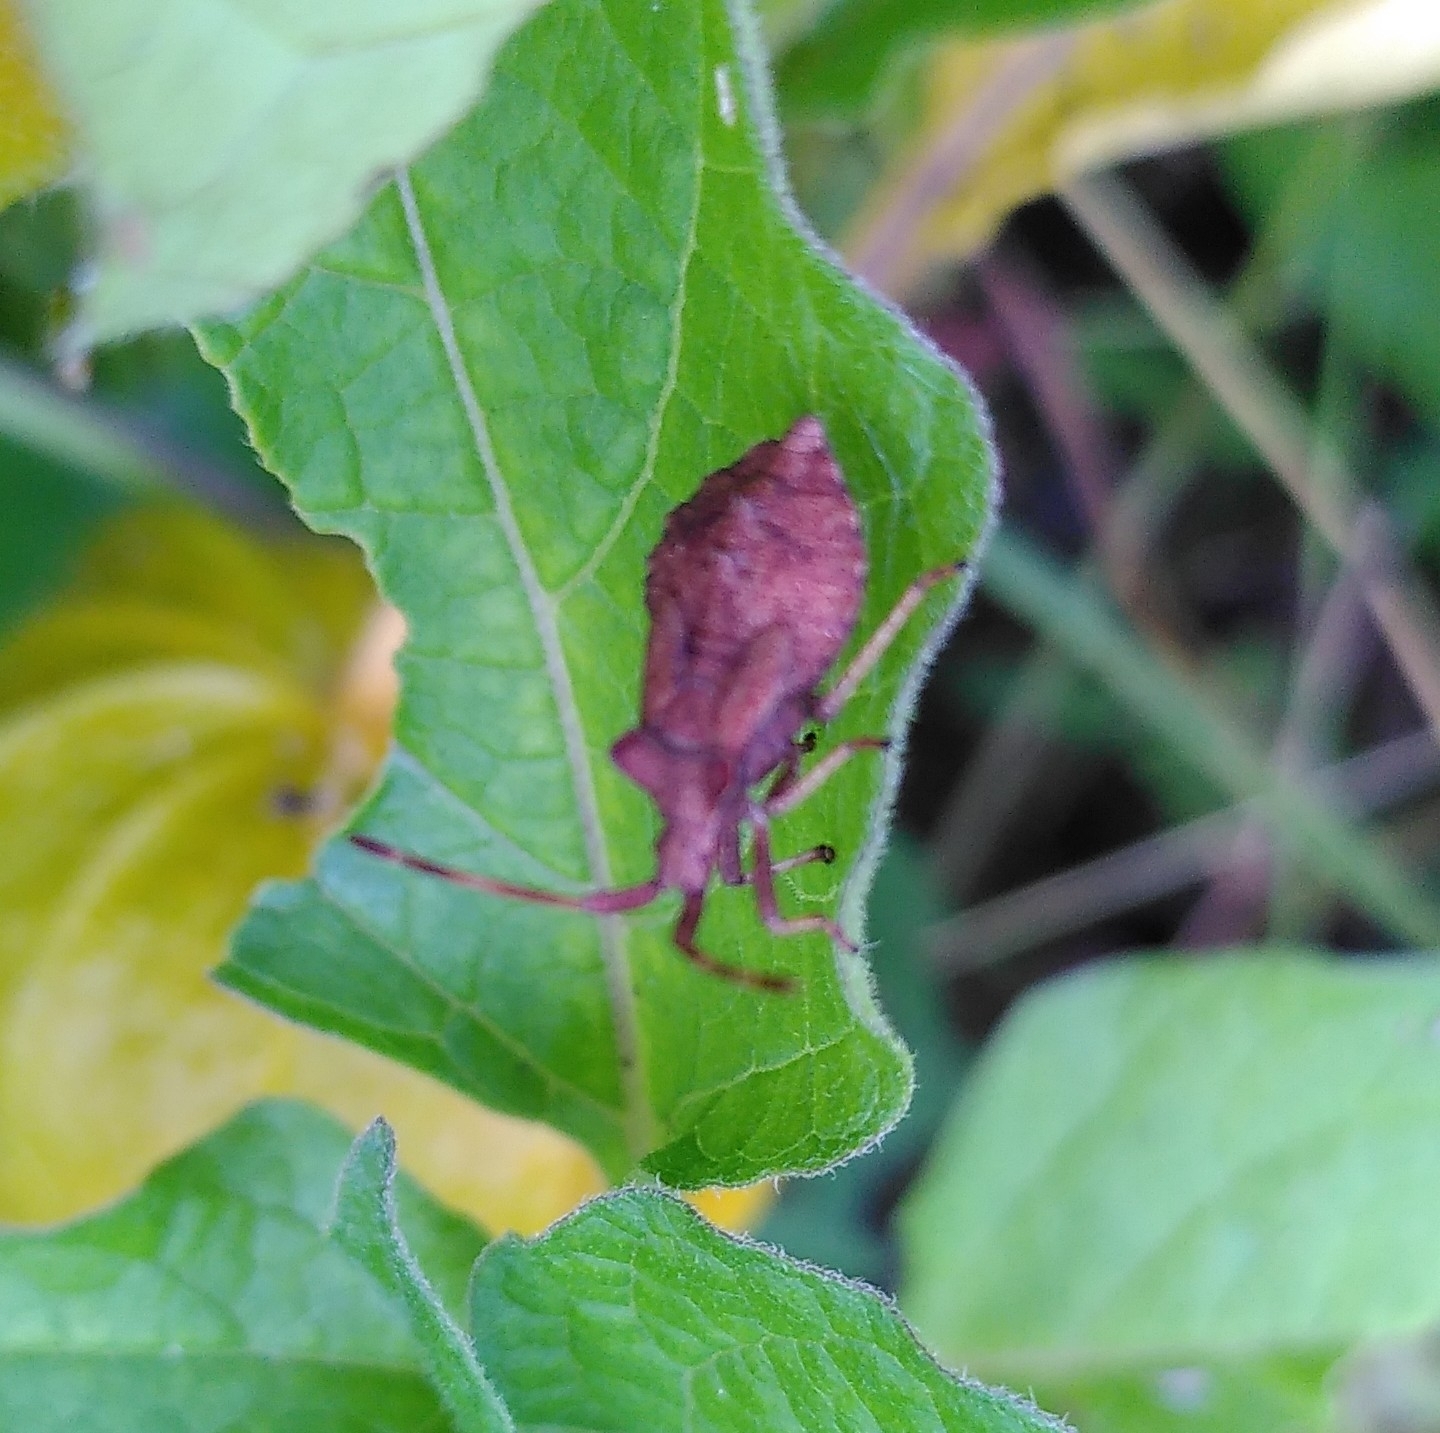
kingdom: Animalia
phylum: Arthropoda
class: Insecta
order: Hemiptera
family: Coreidae
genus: Coreus
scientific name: Coreus marginatus
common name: Dock bug
